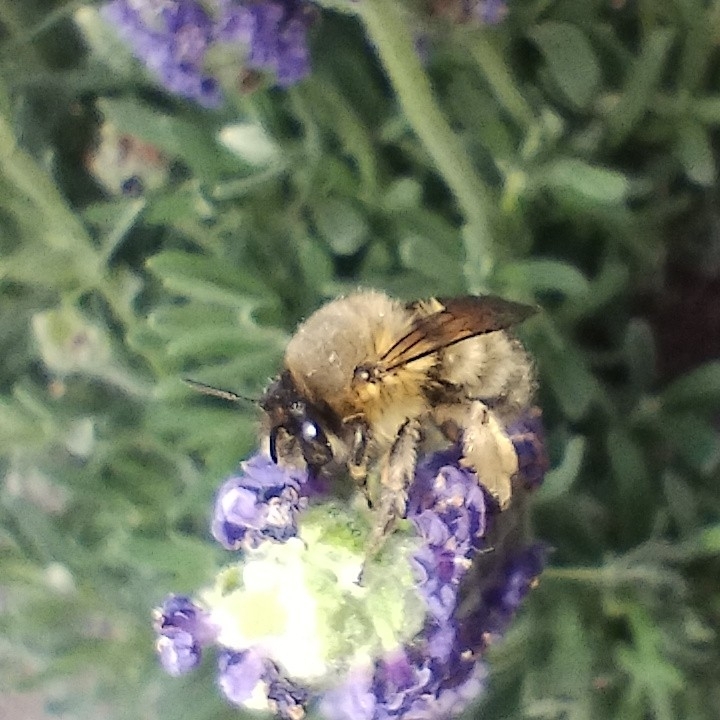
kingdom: Animalia
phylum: Arthropoda
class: Insecta
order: Hymenoptera
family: Apidae
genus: Anthophora
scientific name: Anthophora plumipes
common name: Hairy-footed flower bee
